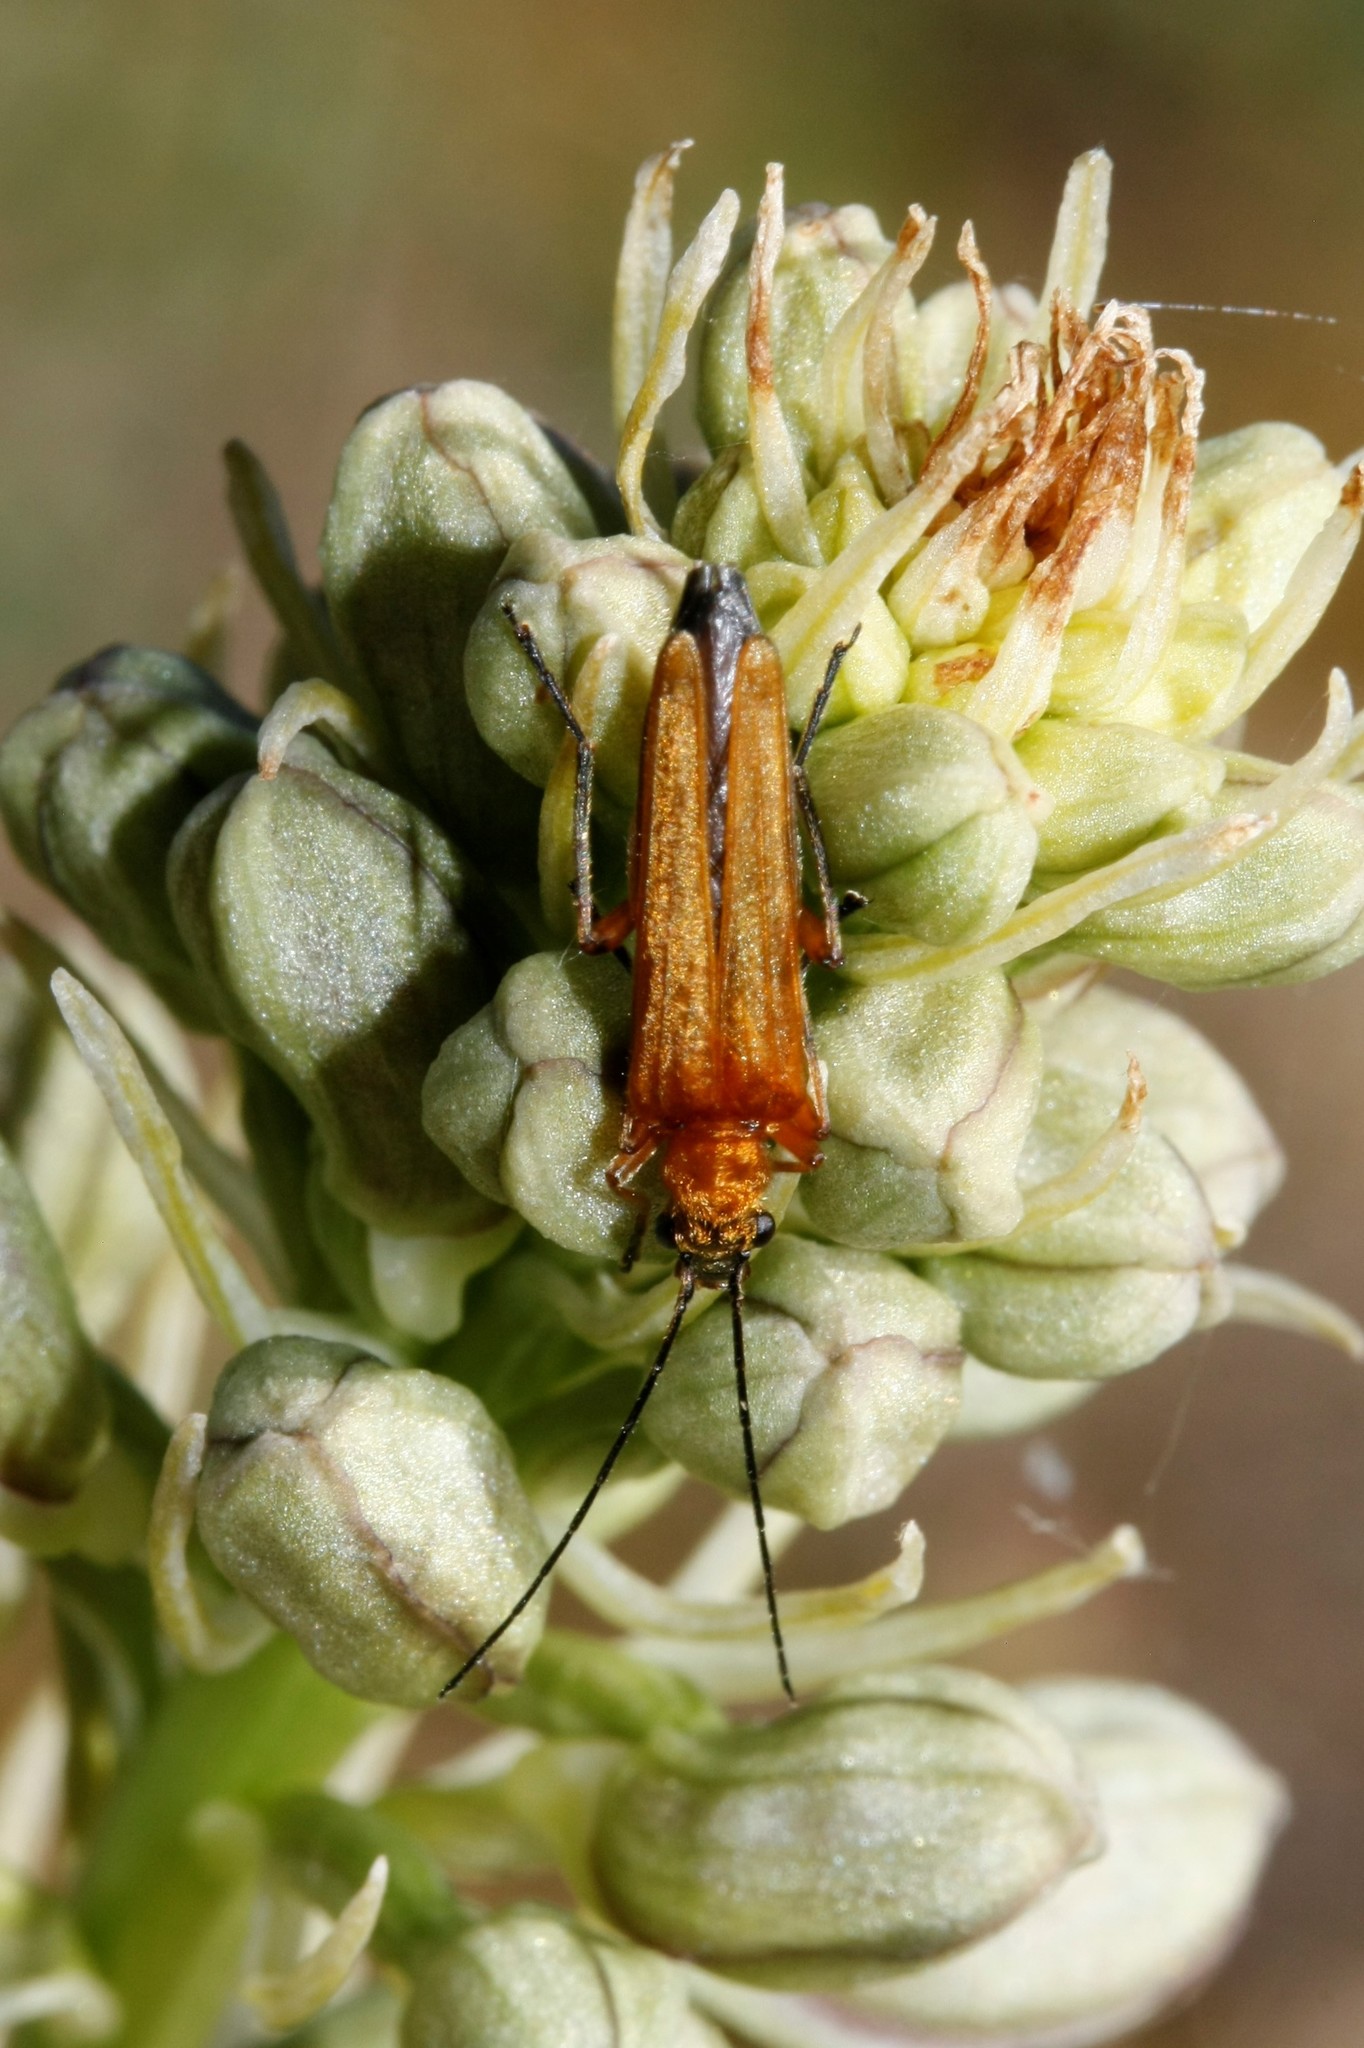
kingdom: Animalia
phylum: Arthropoda
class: Insecta
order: Coleoptera
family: Oedemeridae
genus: Oedemera
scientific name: Oedemera podagrariae
